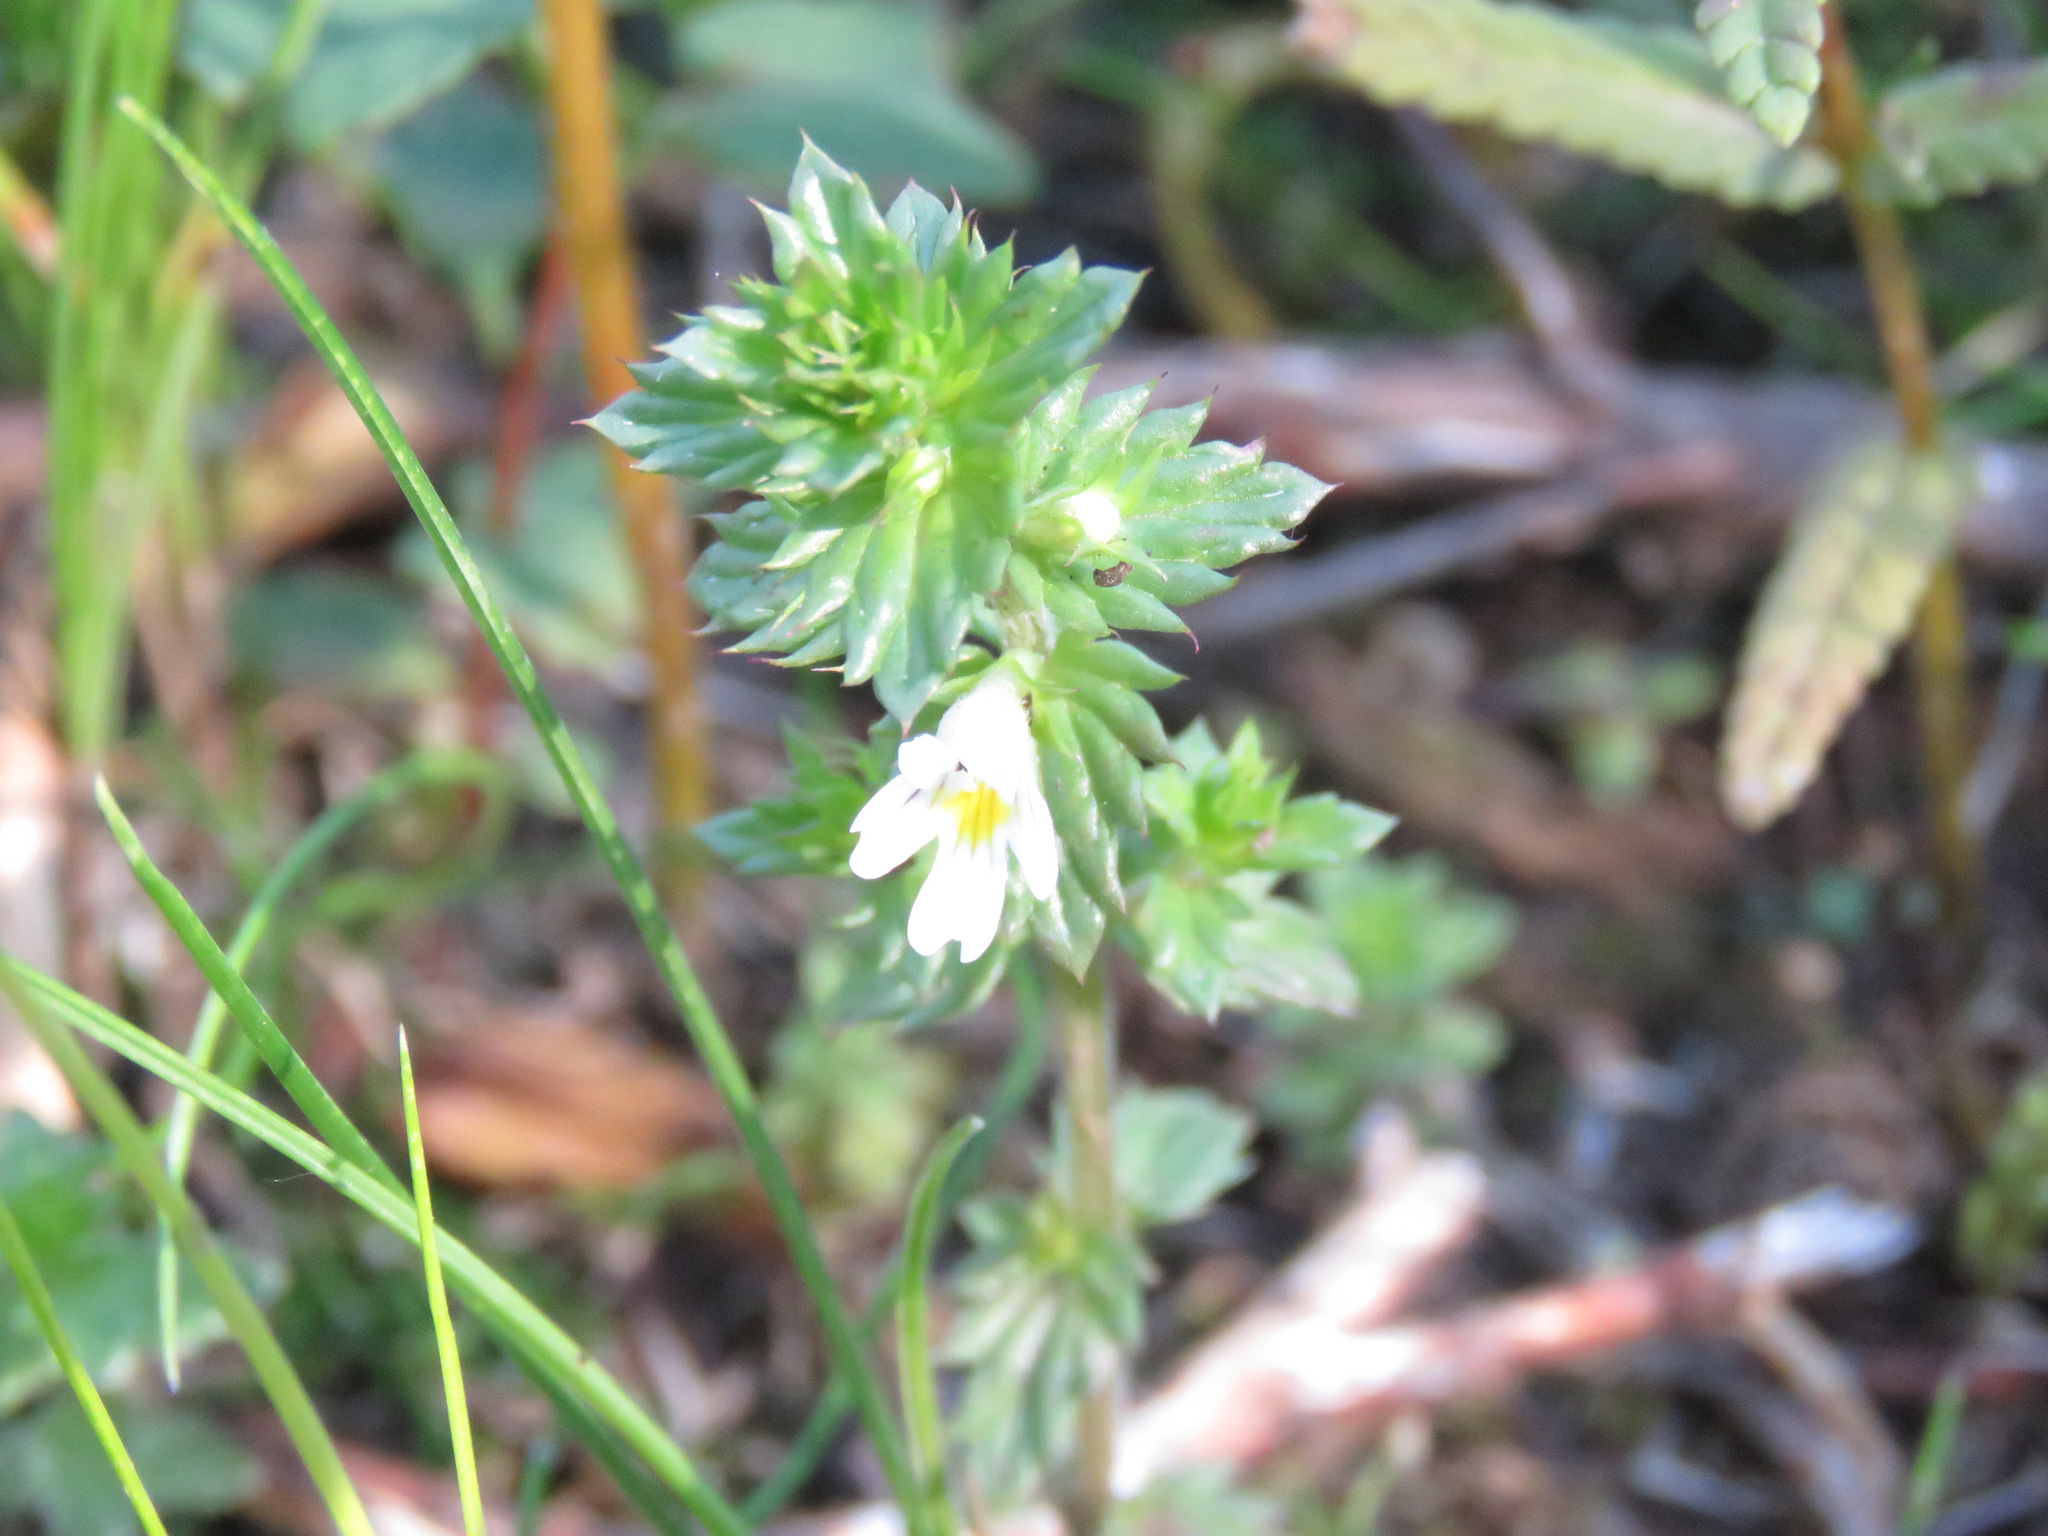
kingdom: Plantae
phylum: Tracheophyta
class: Magnoliopsida
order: Lamiales
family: Orobanchaceae
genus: Euphrasia
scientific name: Euphrasia nemorosa
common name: Common eyebright
